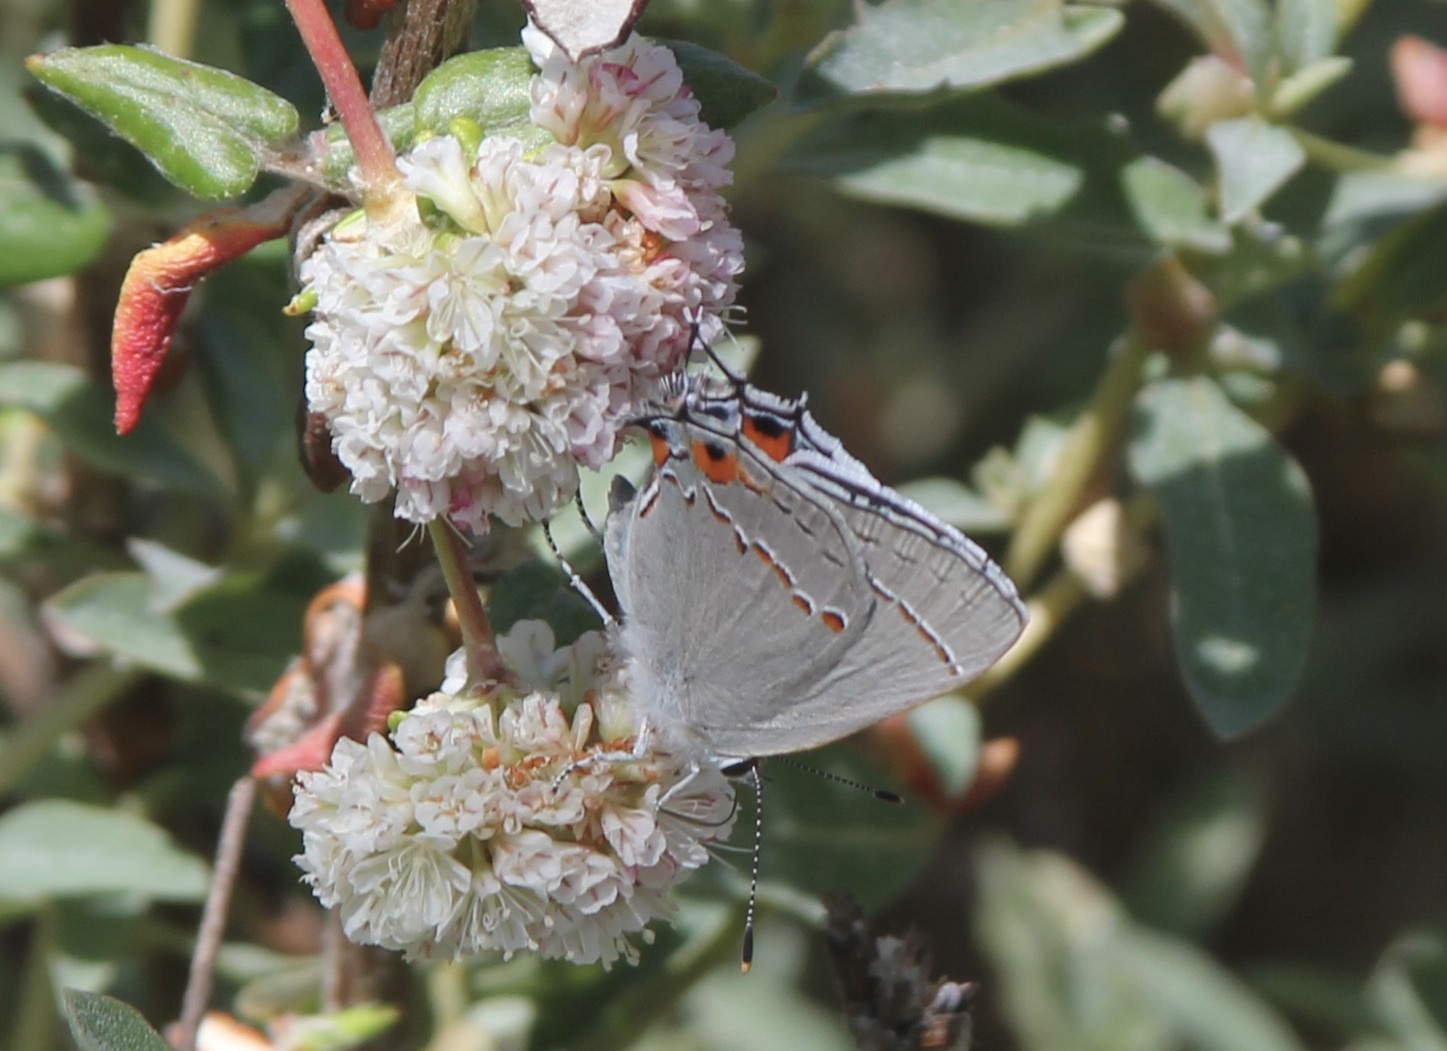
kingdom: Animalia
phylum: Arthropoda
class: Insecta
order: Lepidoptera
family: Lycaenidae
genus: Strymon
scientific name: Strymon melinus
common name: Gray hairstreak
